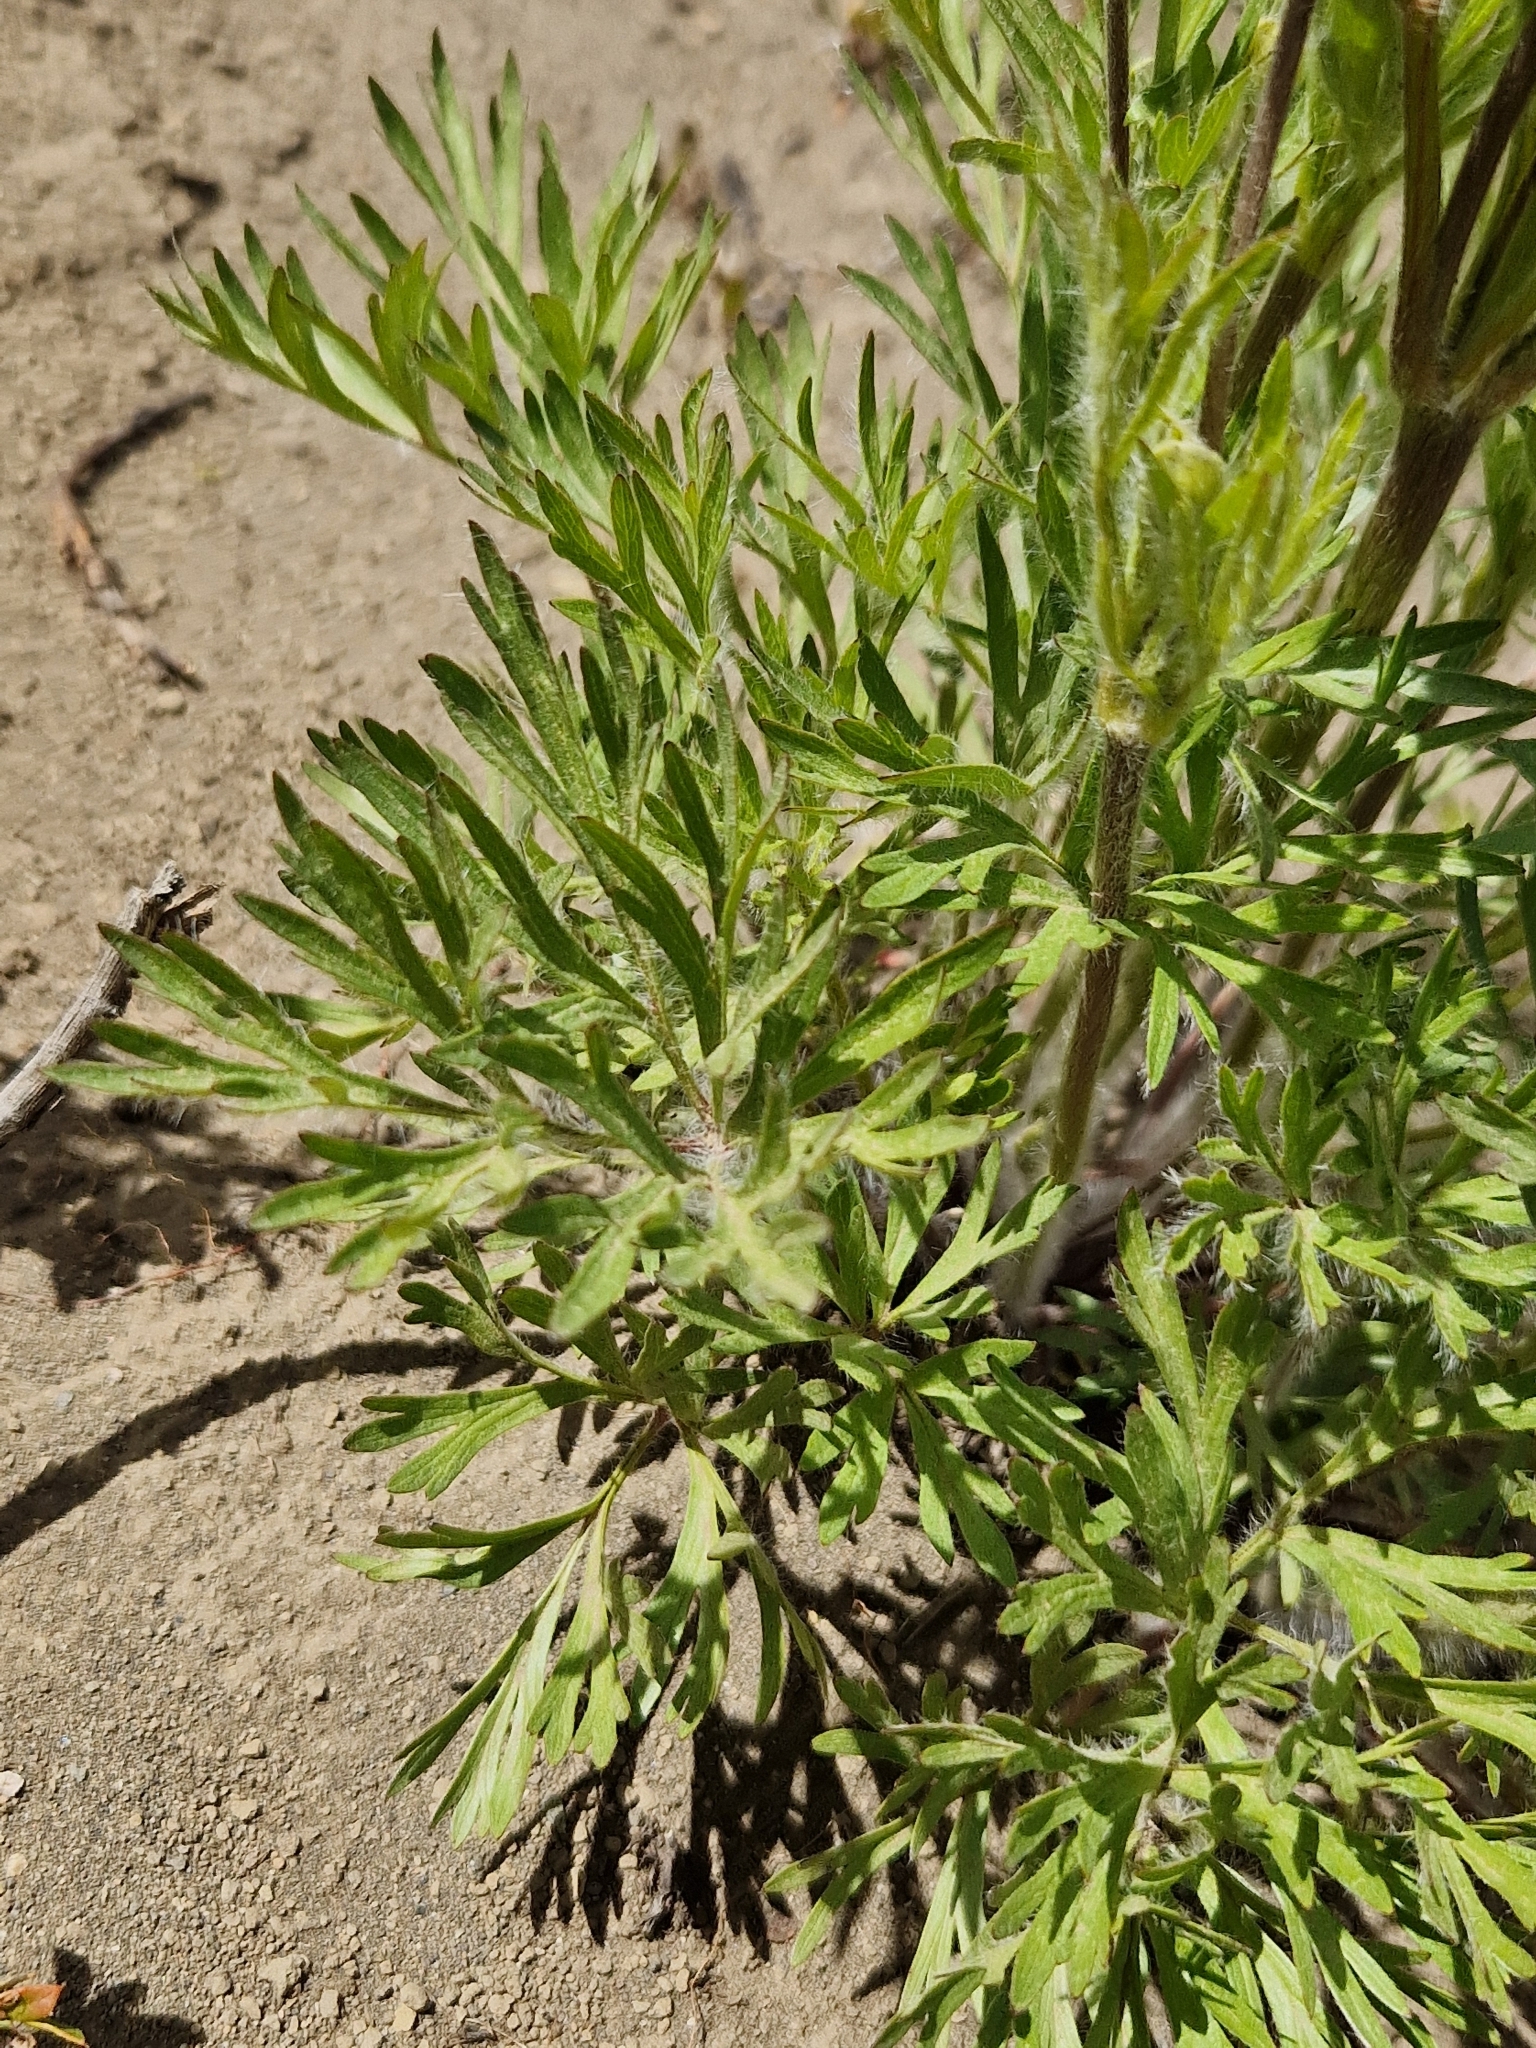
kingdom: Plantae
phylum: Tracheophyta
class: Magnoliopsida
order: Ranunculales
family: Ranunculaceae
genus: Anemone
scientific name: Anemone multifida
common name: Bird's-foot anemone
